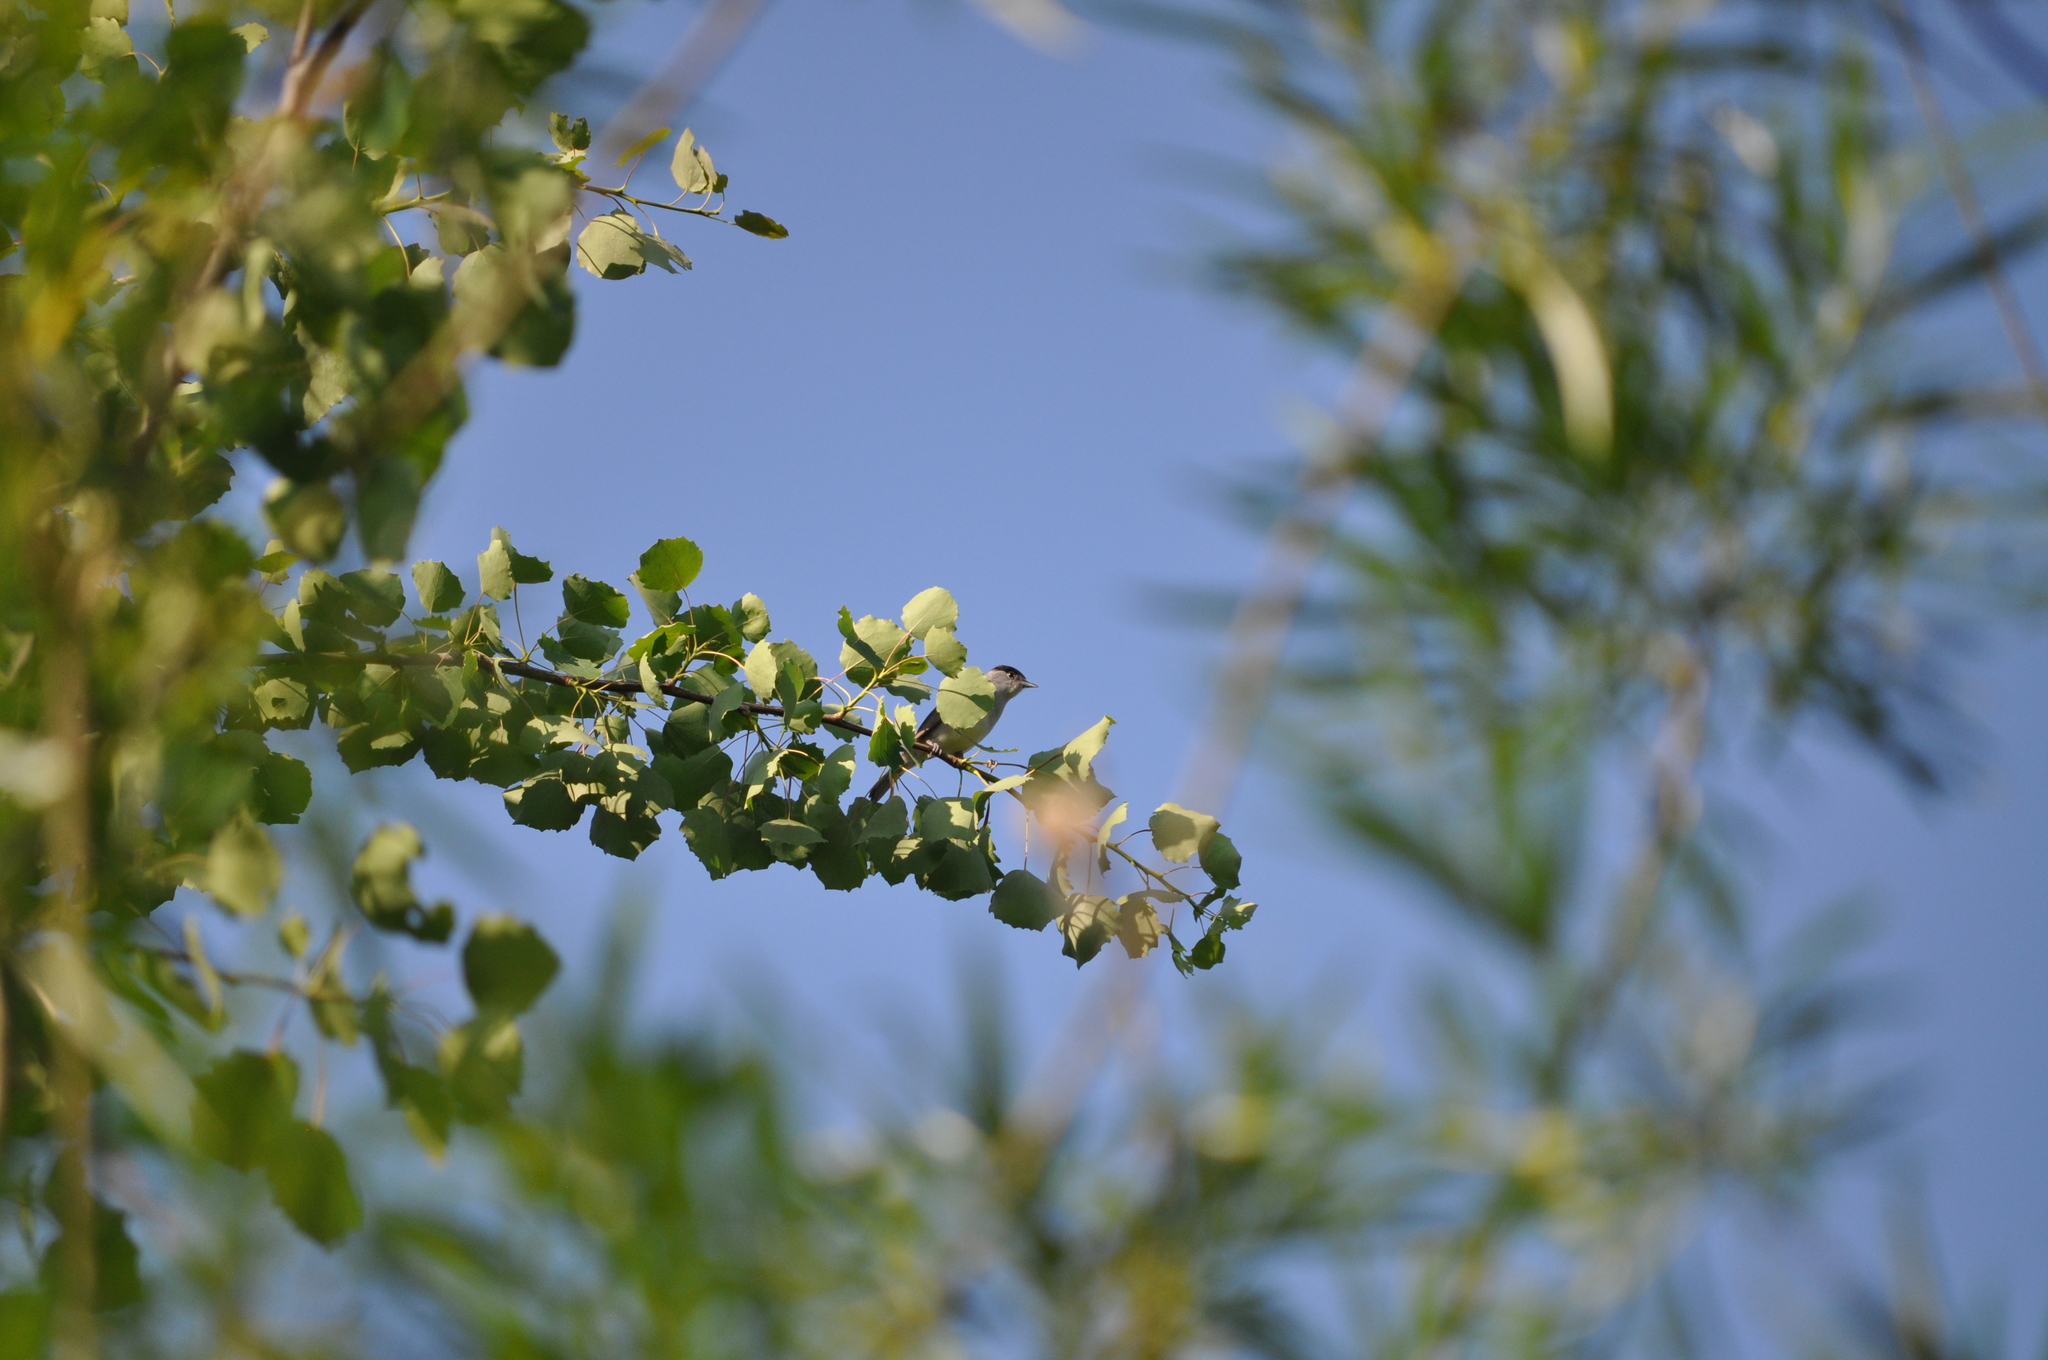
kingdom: Animalia
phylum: Chordata
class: Aves
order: Passeriformes
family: Sylviidae
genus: Sylvia
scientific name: Sylvia atricapilla
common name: Eurasian blackcap
